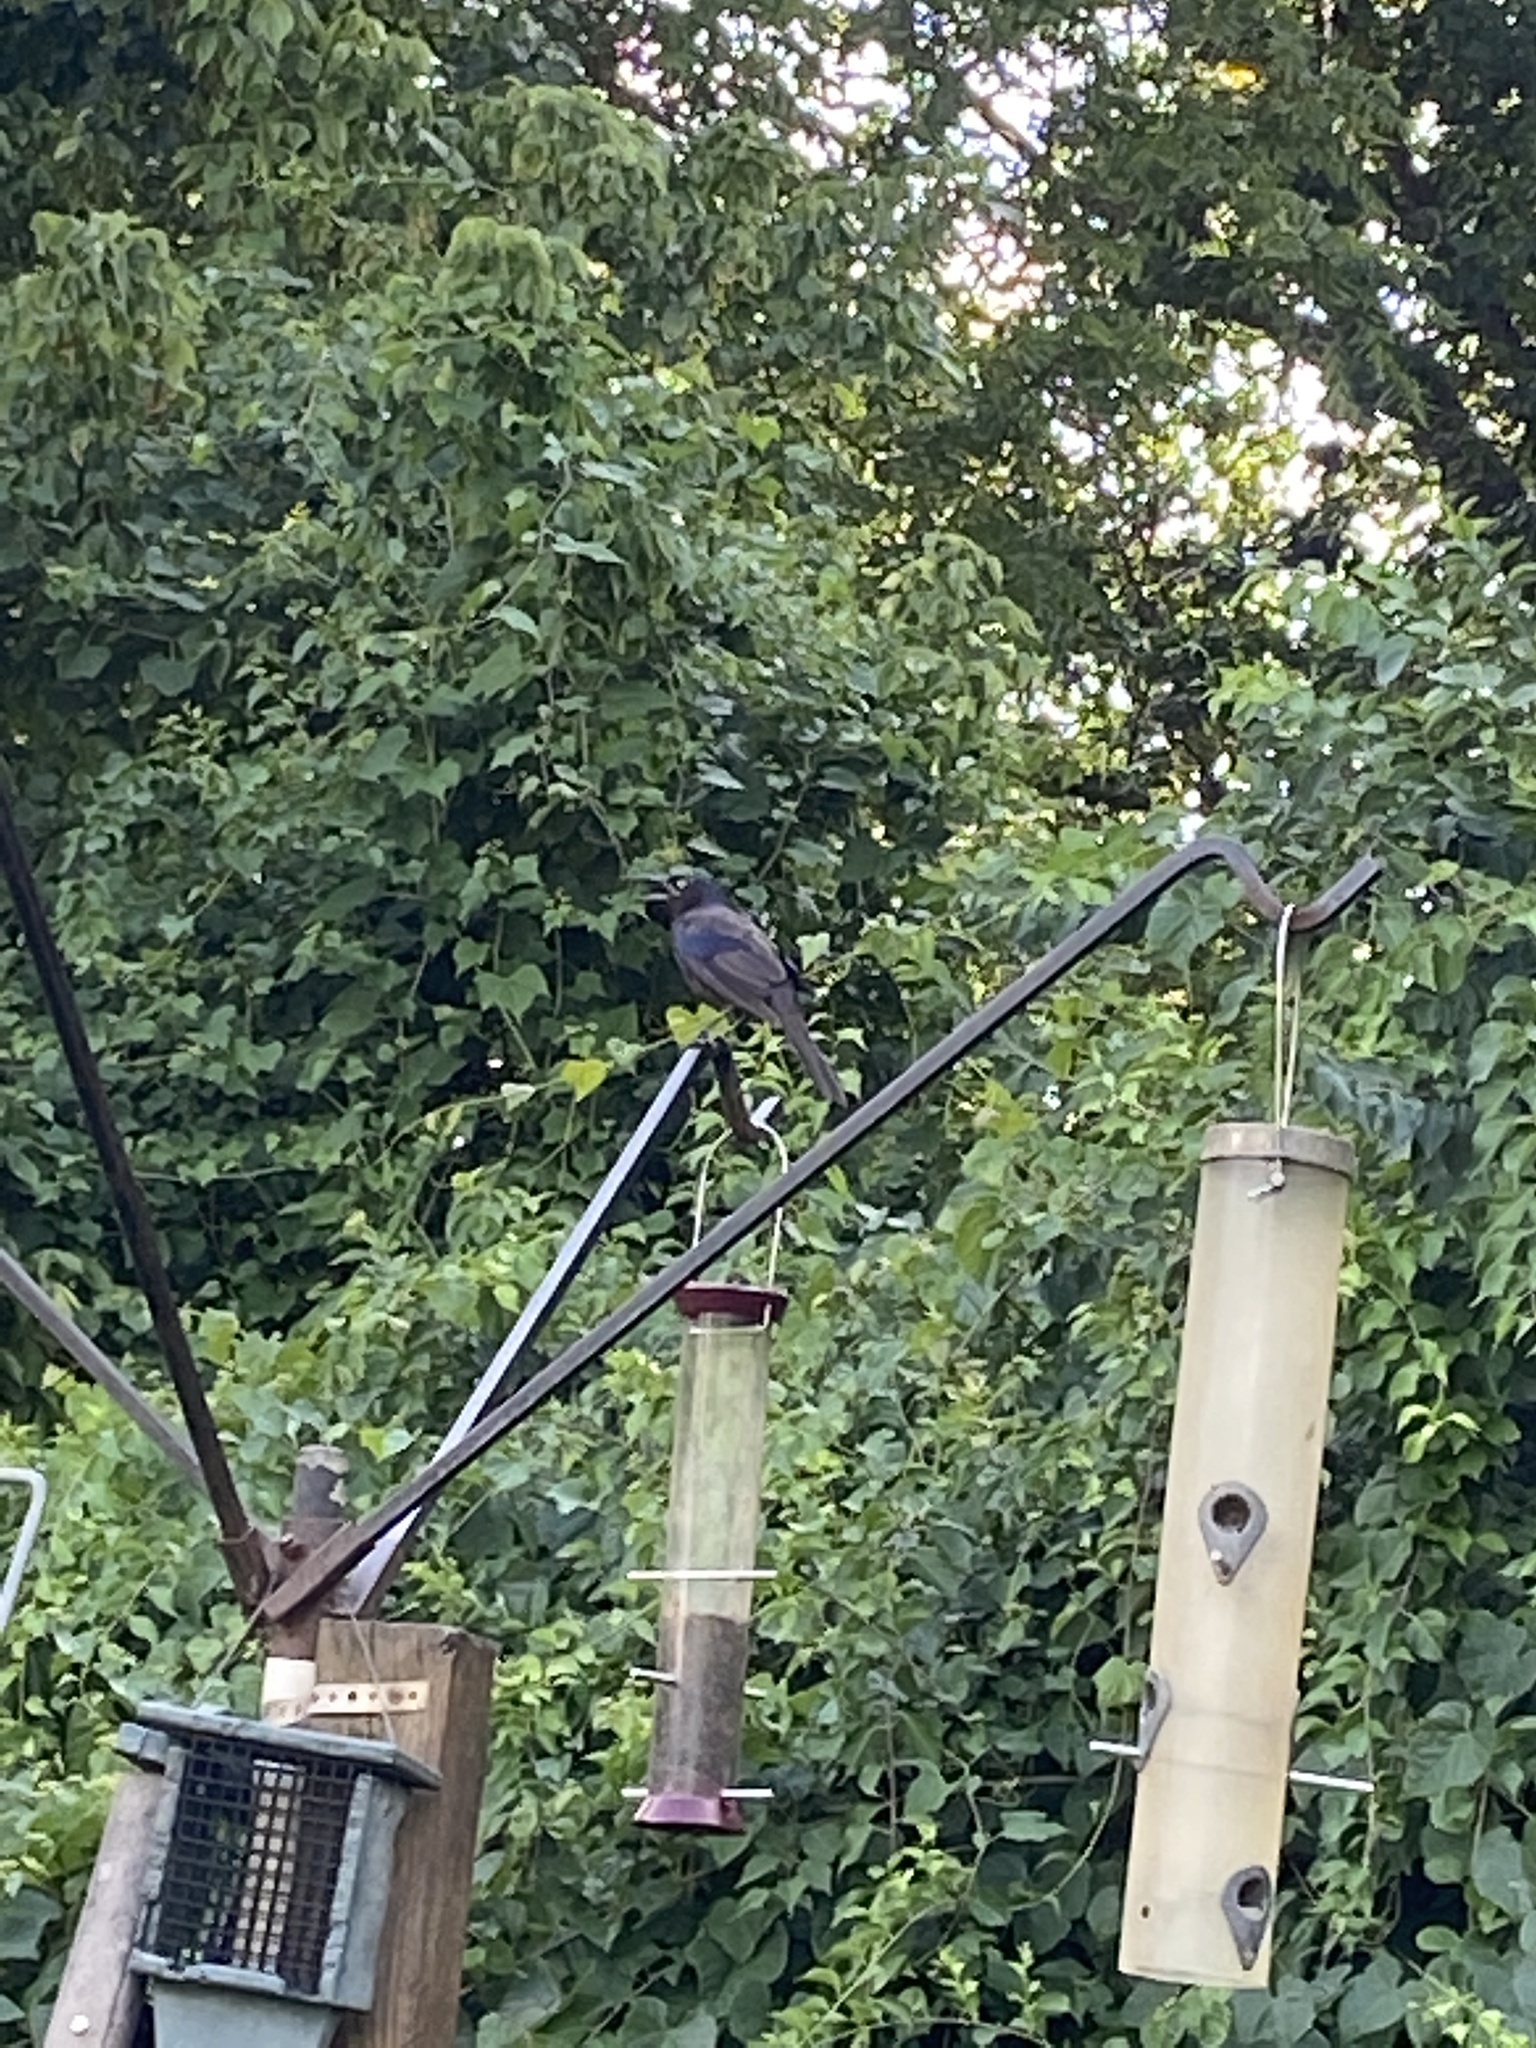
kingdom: Animalia
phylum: Chordata
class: Aves
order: Passeriformes
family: Icteridae
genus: Quiscalus
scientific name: Quiscalus quiscula
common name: Common grackle
